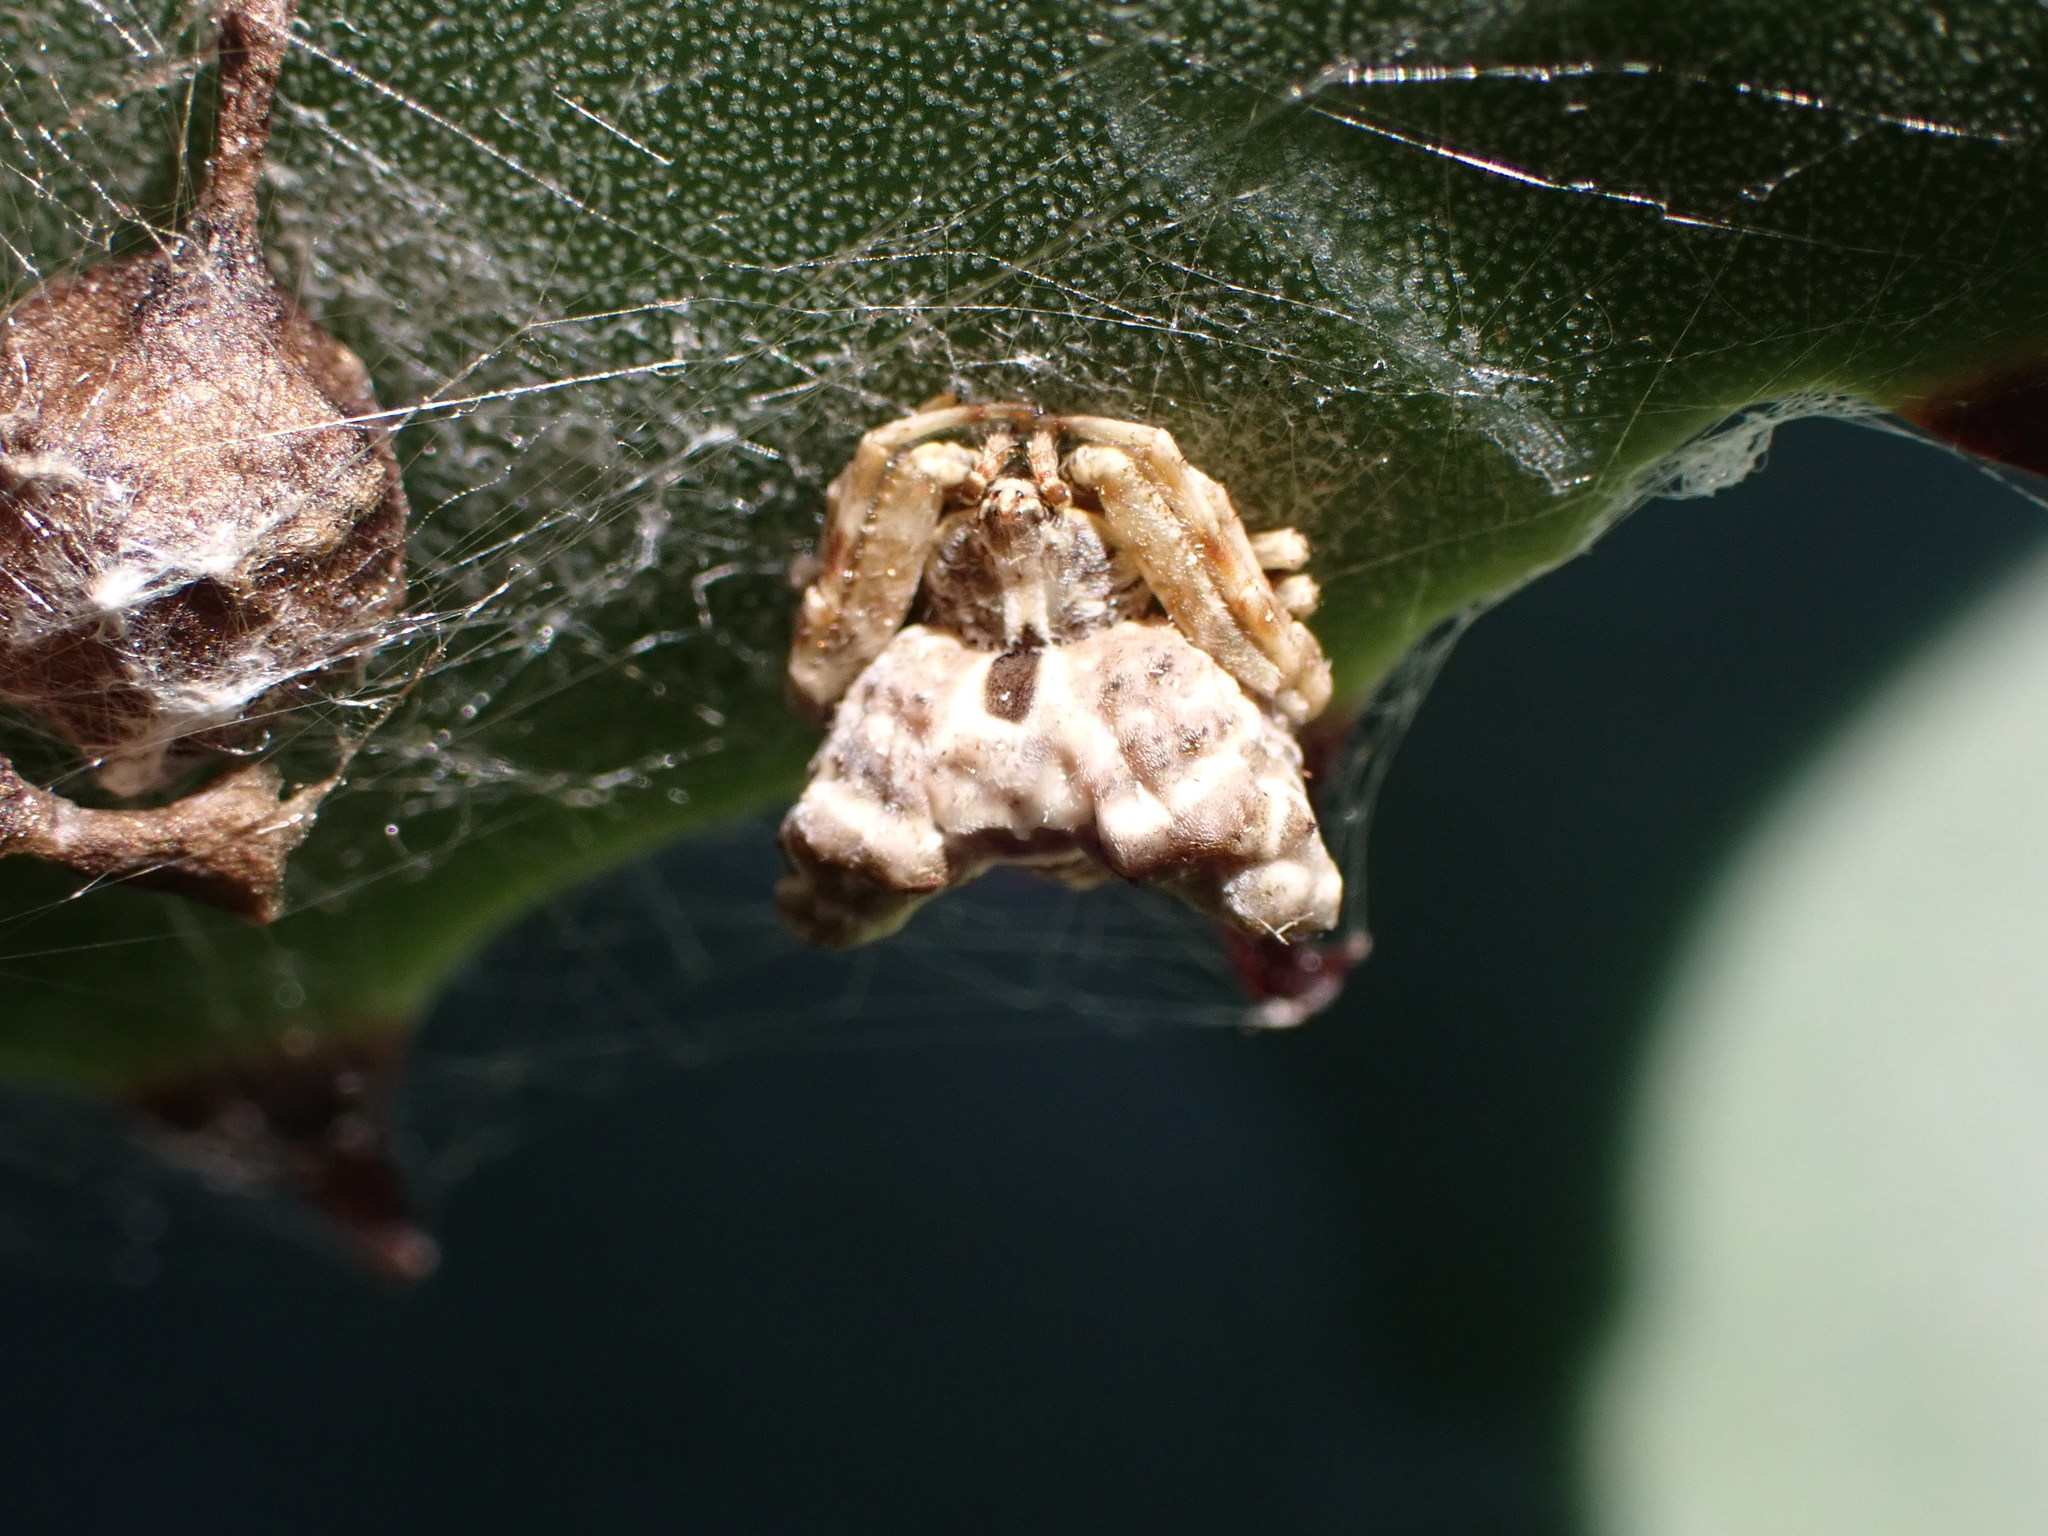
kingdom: Animalia
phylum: Arthropoda
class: Arachnida
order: Araneae
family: Araneidae
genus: Celaenia
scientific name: Celaenia olivacea
